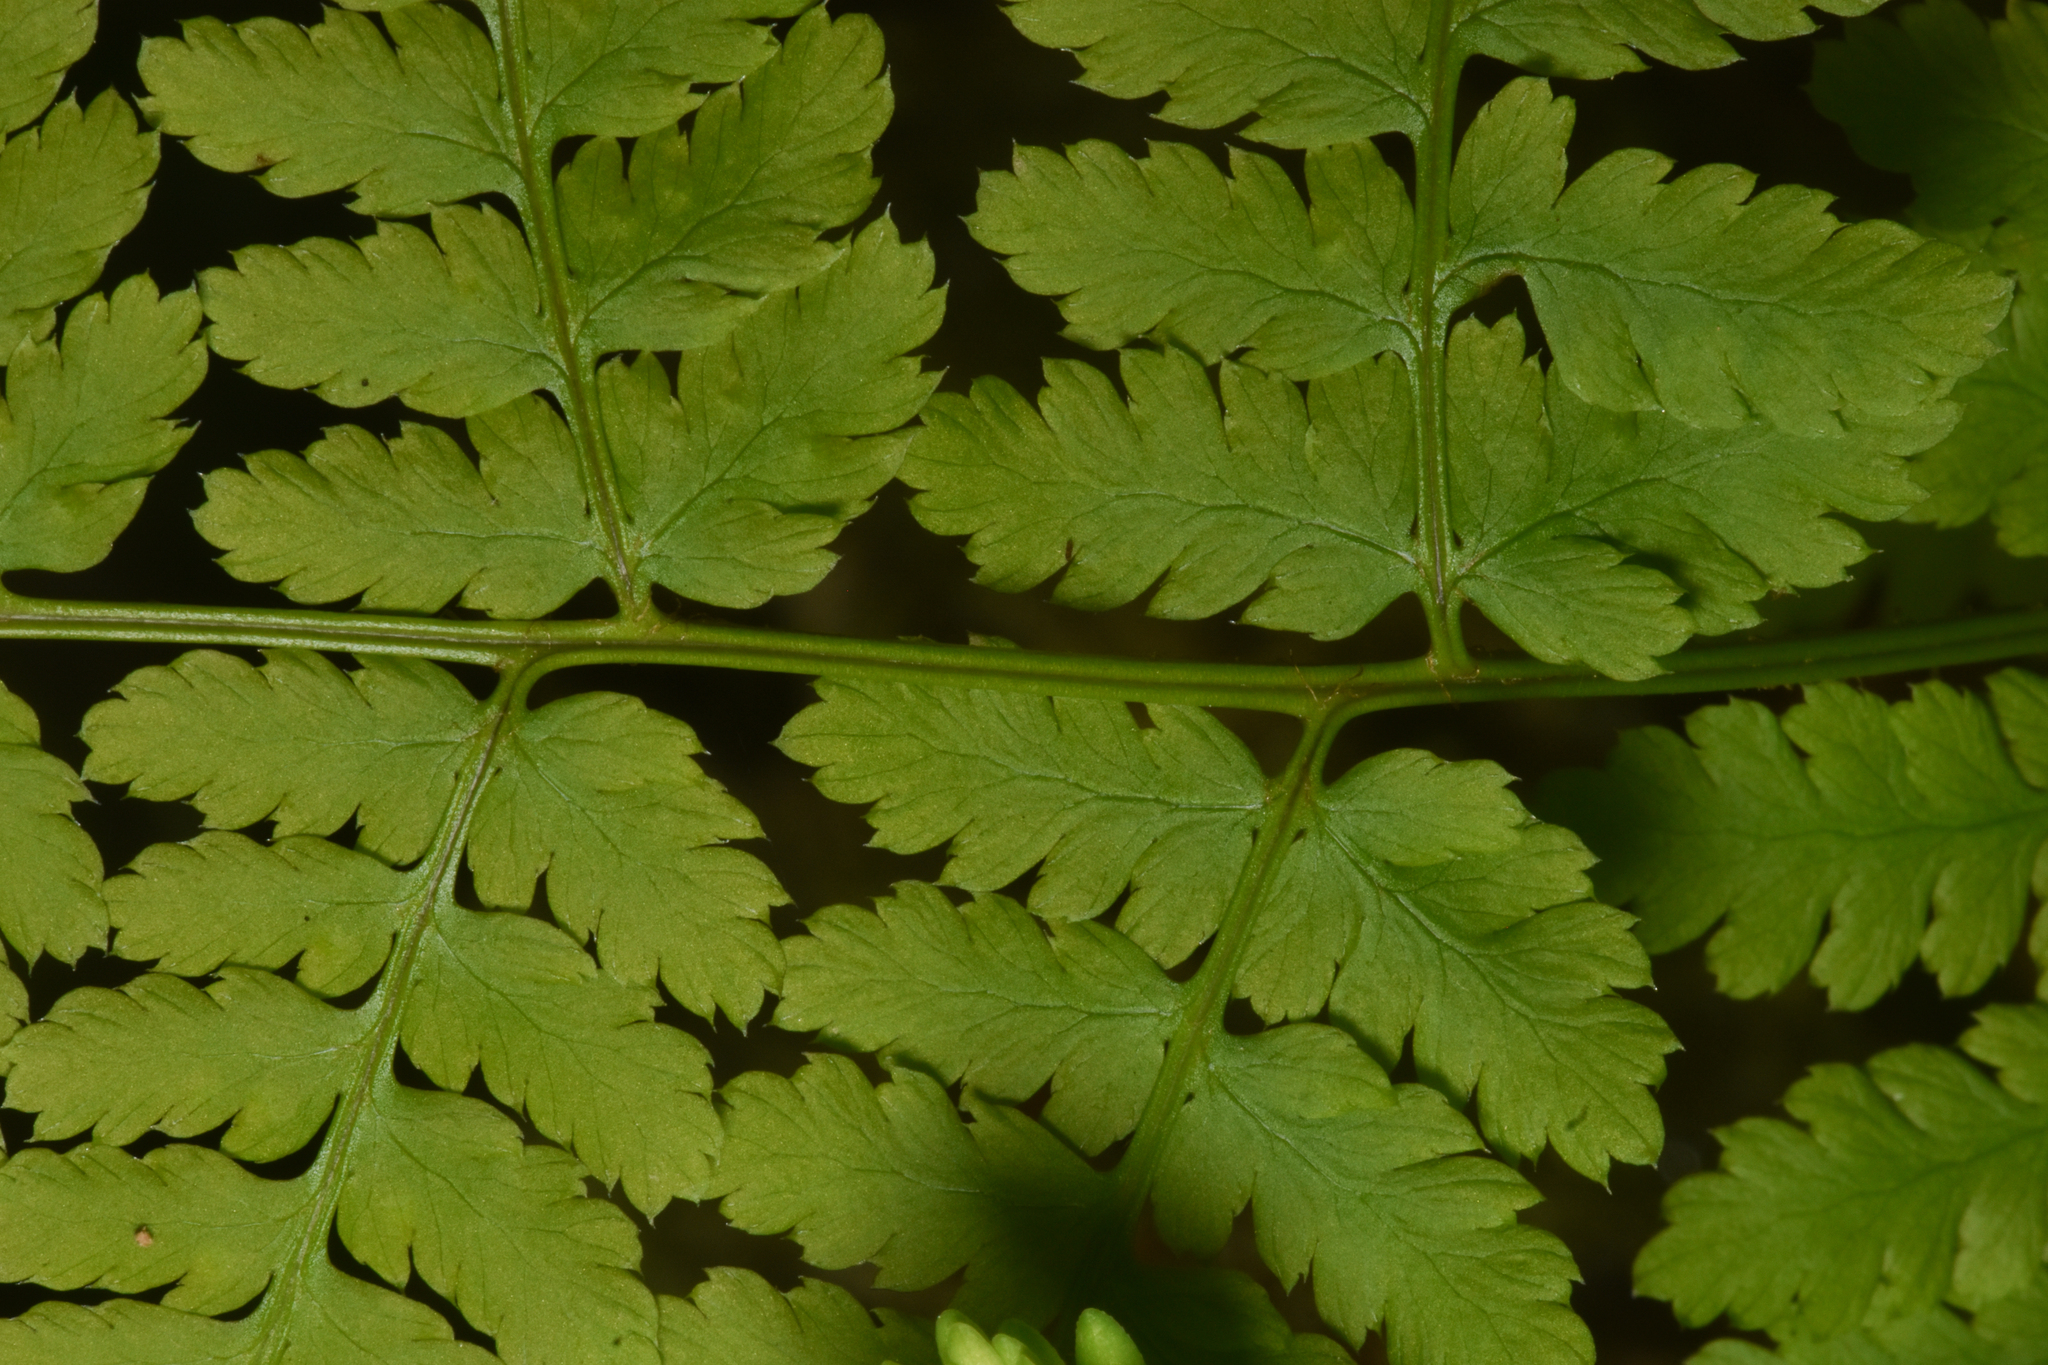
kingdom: Plantae
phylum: Tracheophyta
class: Polypodiopsida
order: Polypodiales
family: Dryopteridaceae
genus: Dryopteris
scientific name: Dryopteris expansa
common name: Northern buckler fern
